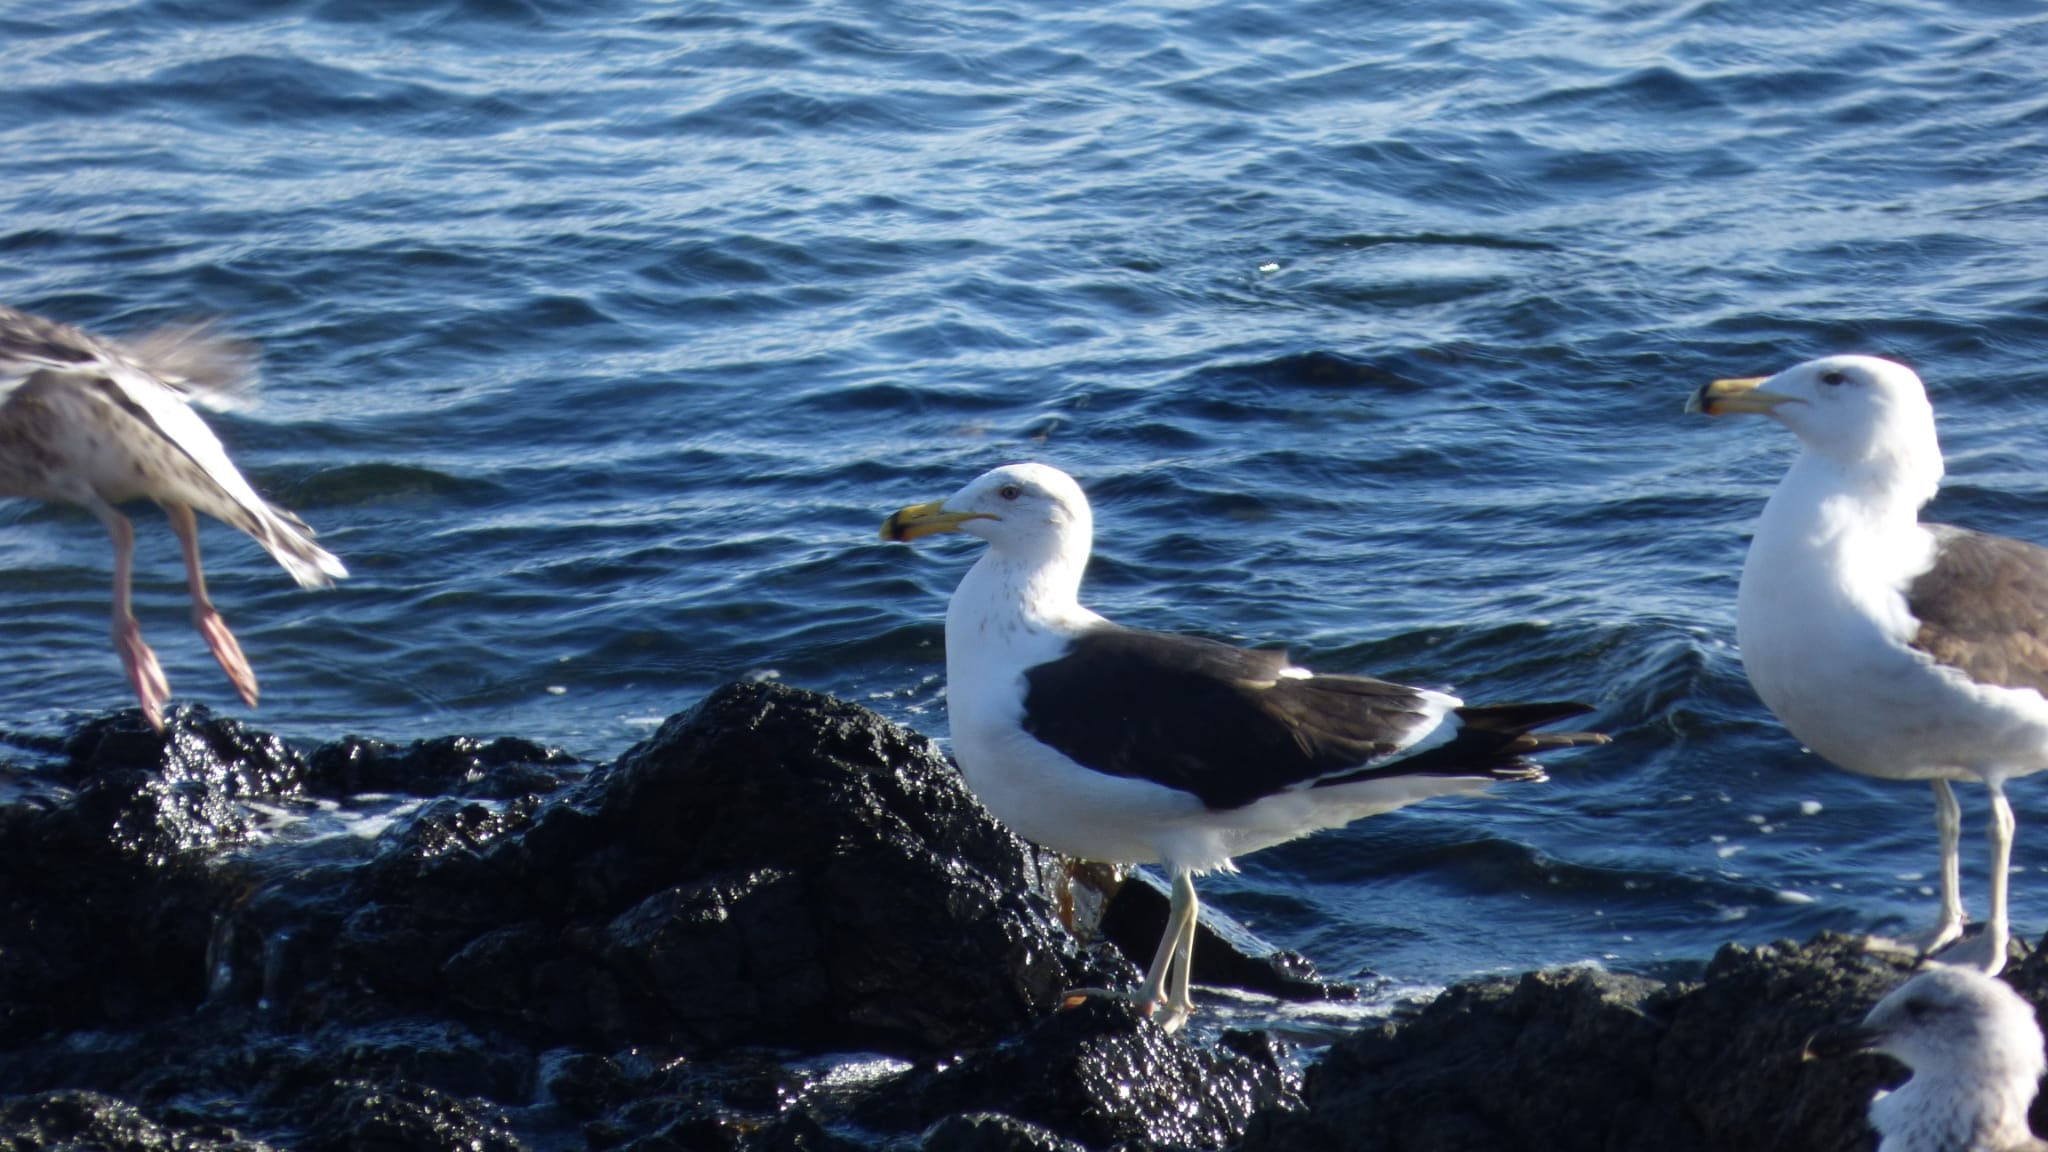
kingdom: Animalia
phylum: Chordata
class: Aves
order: Charadriiformes
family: Laridae
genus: Larus
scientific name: Larus dominicanus
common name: Kelp gull
